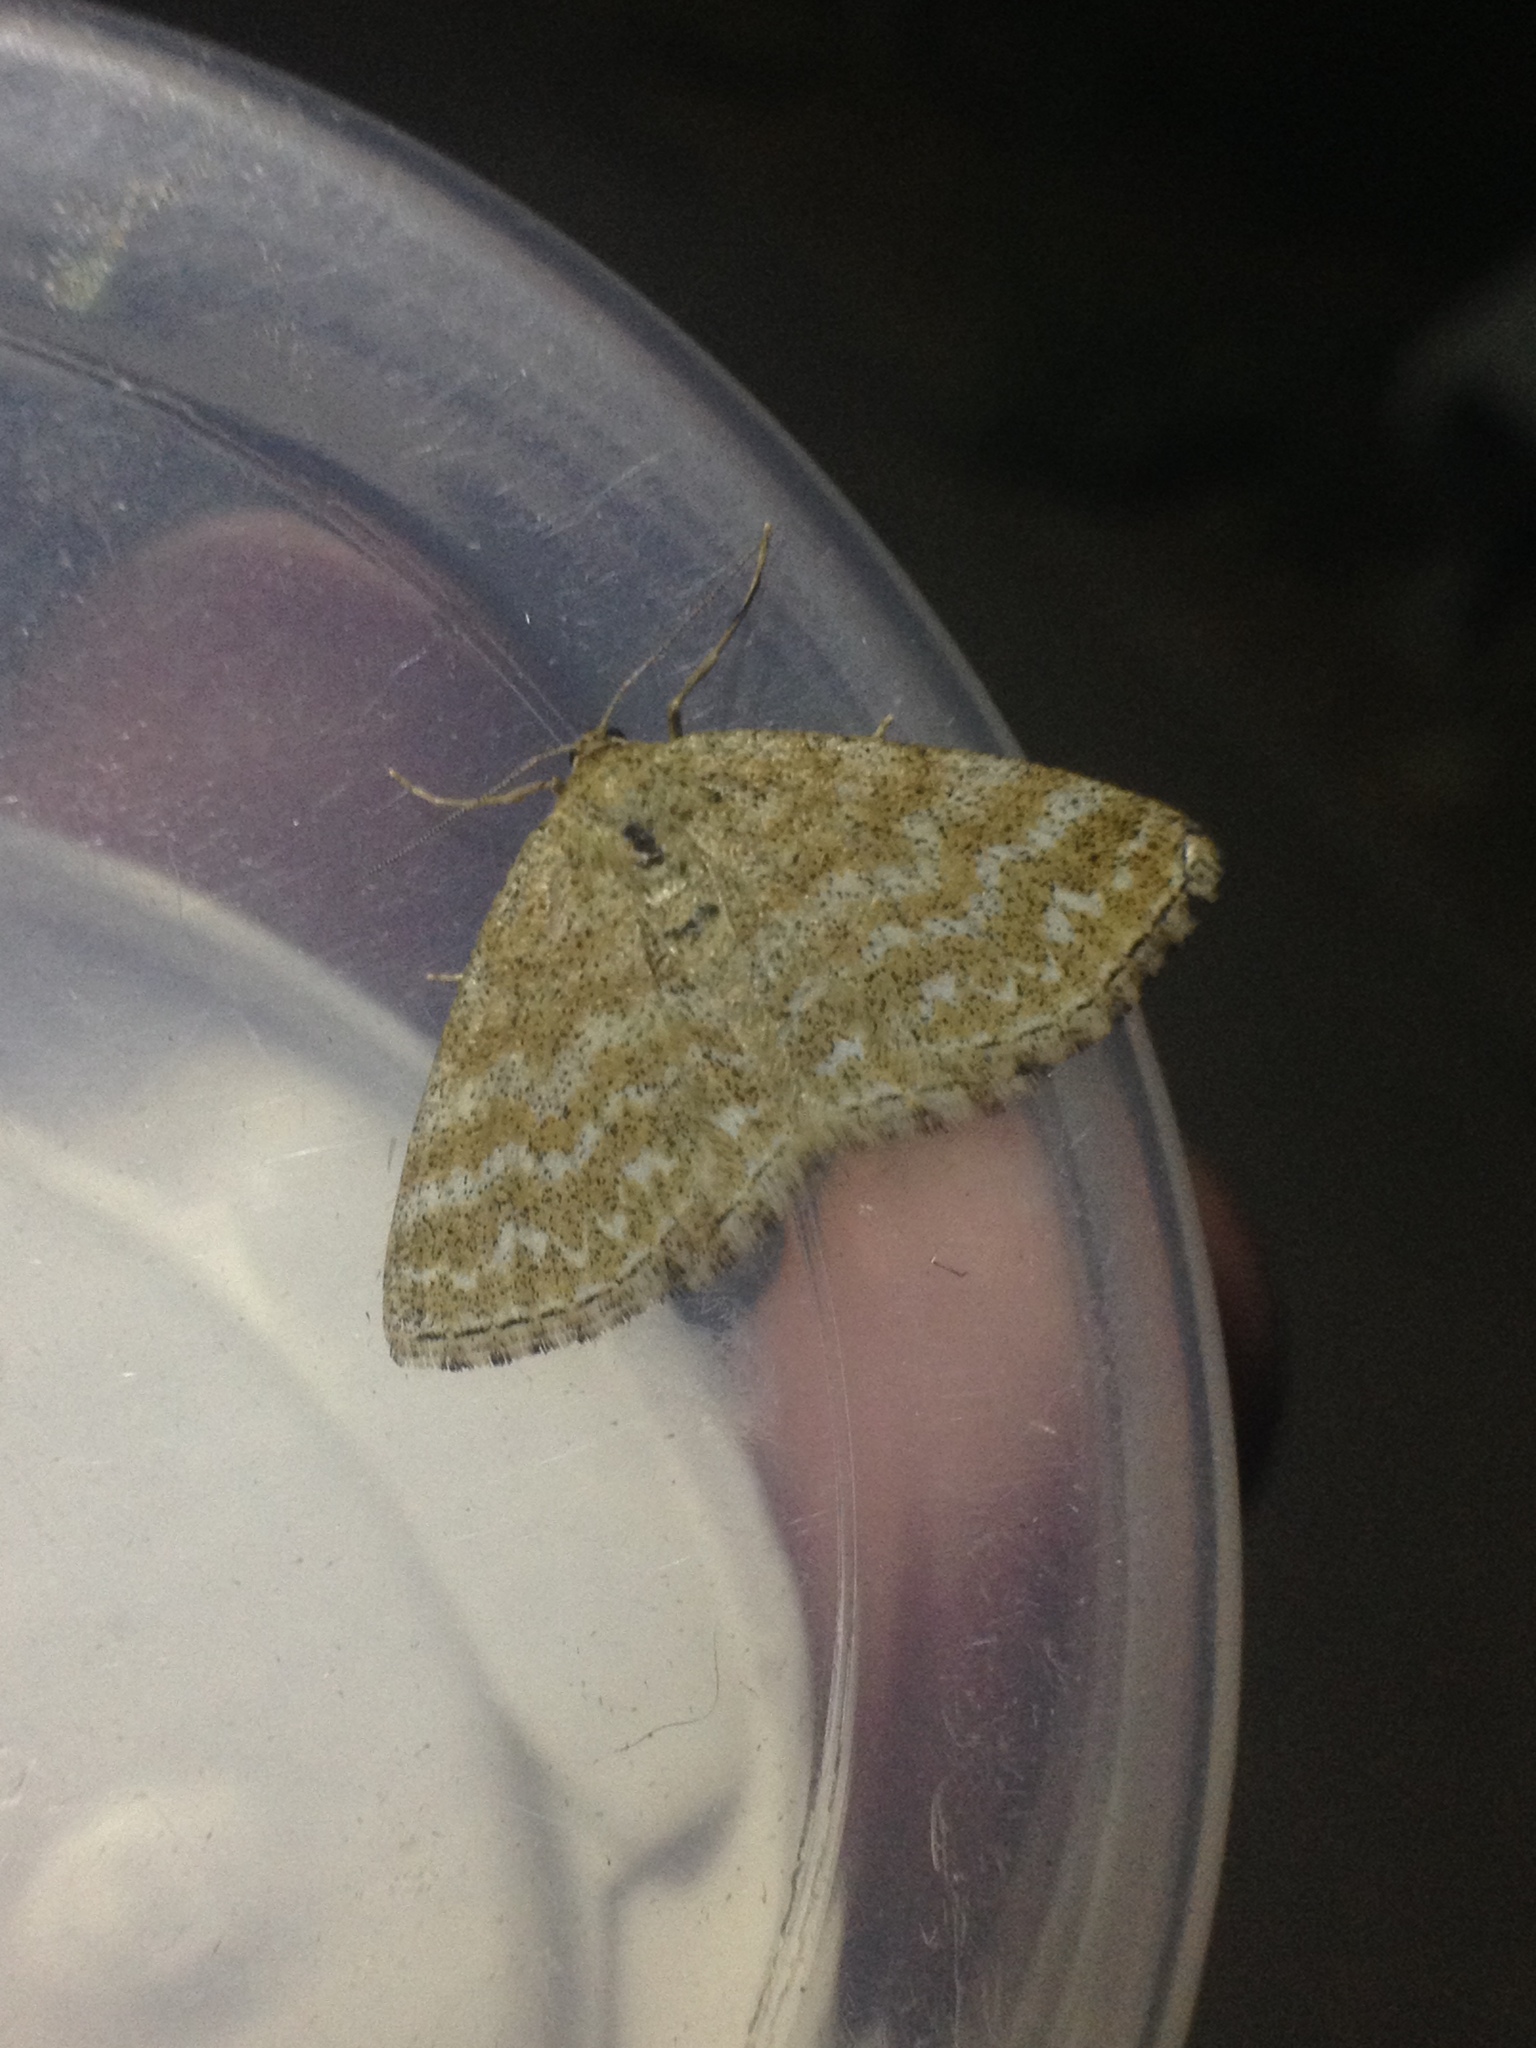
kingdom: Animalia
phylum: Arthropoda
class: Insecta
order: Lepidoptera
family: Geometridae
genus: Scopula
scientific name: Scopula immorata
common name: Lewes wave
